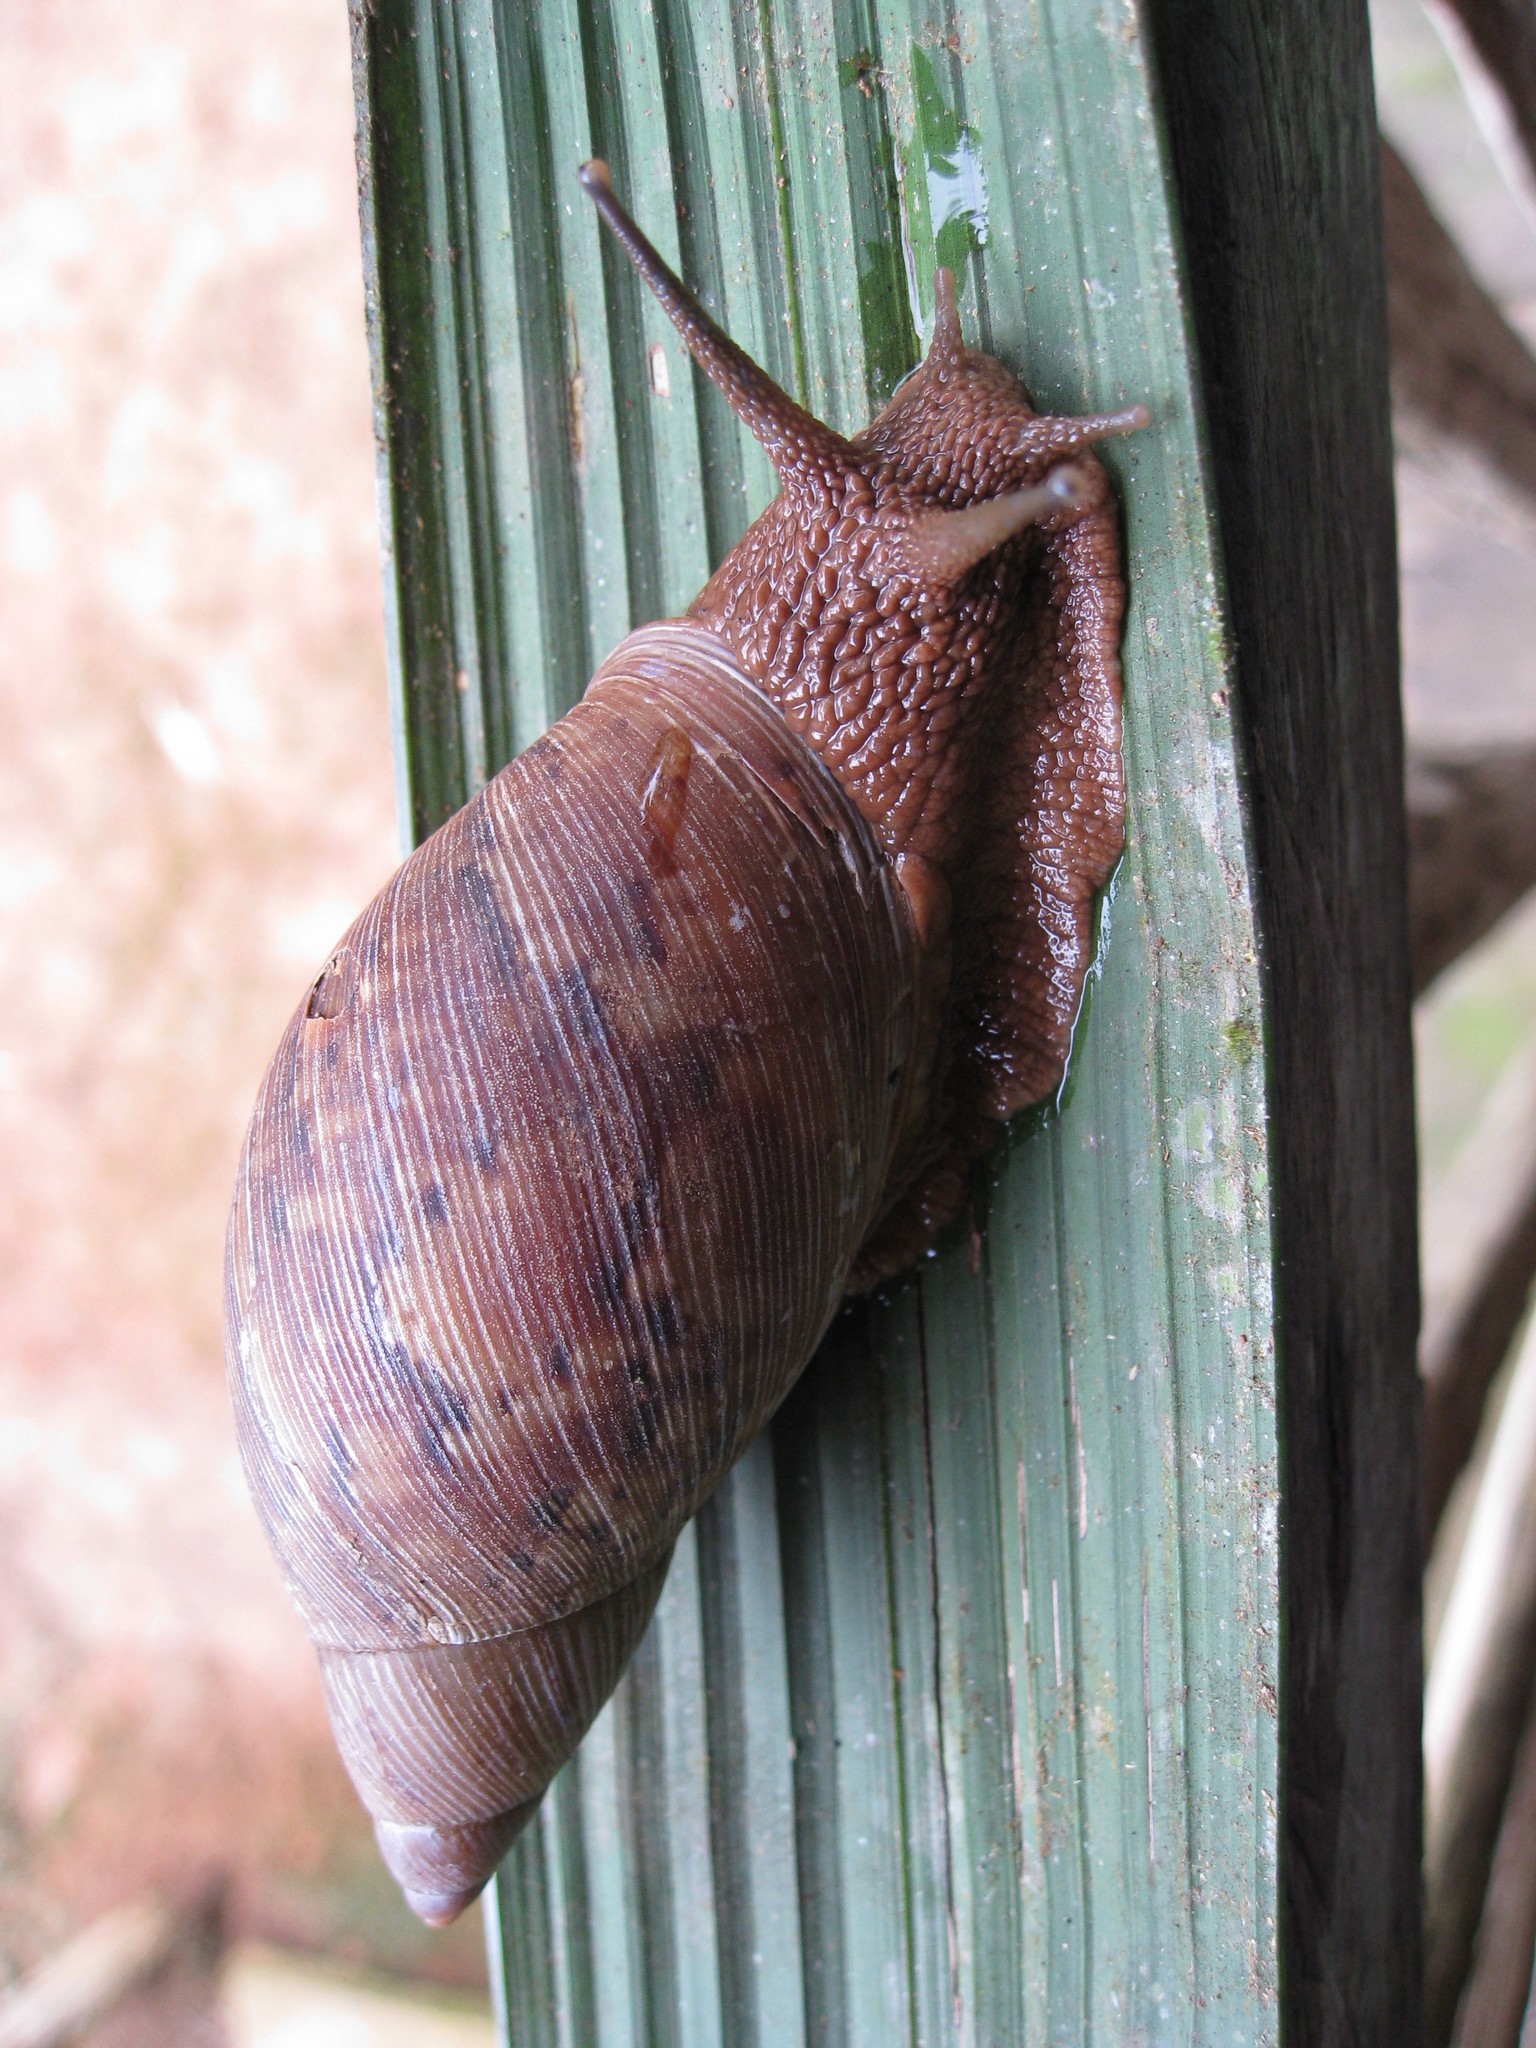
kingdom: Animalia
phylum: Mollusca
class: Gastropoda
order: Stylommatophora
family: Amphibulimidae
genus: Plekocheilus
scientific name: Plekocheilus floccosus
